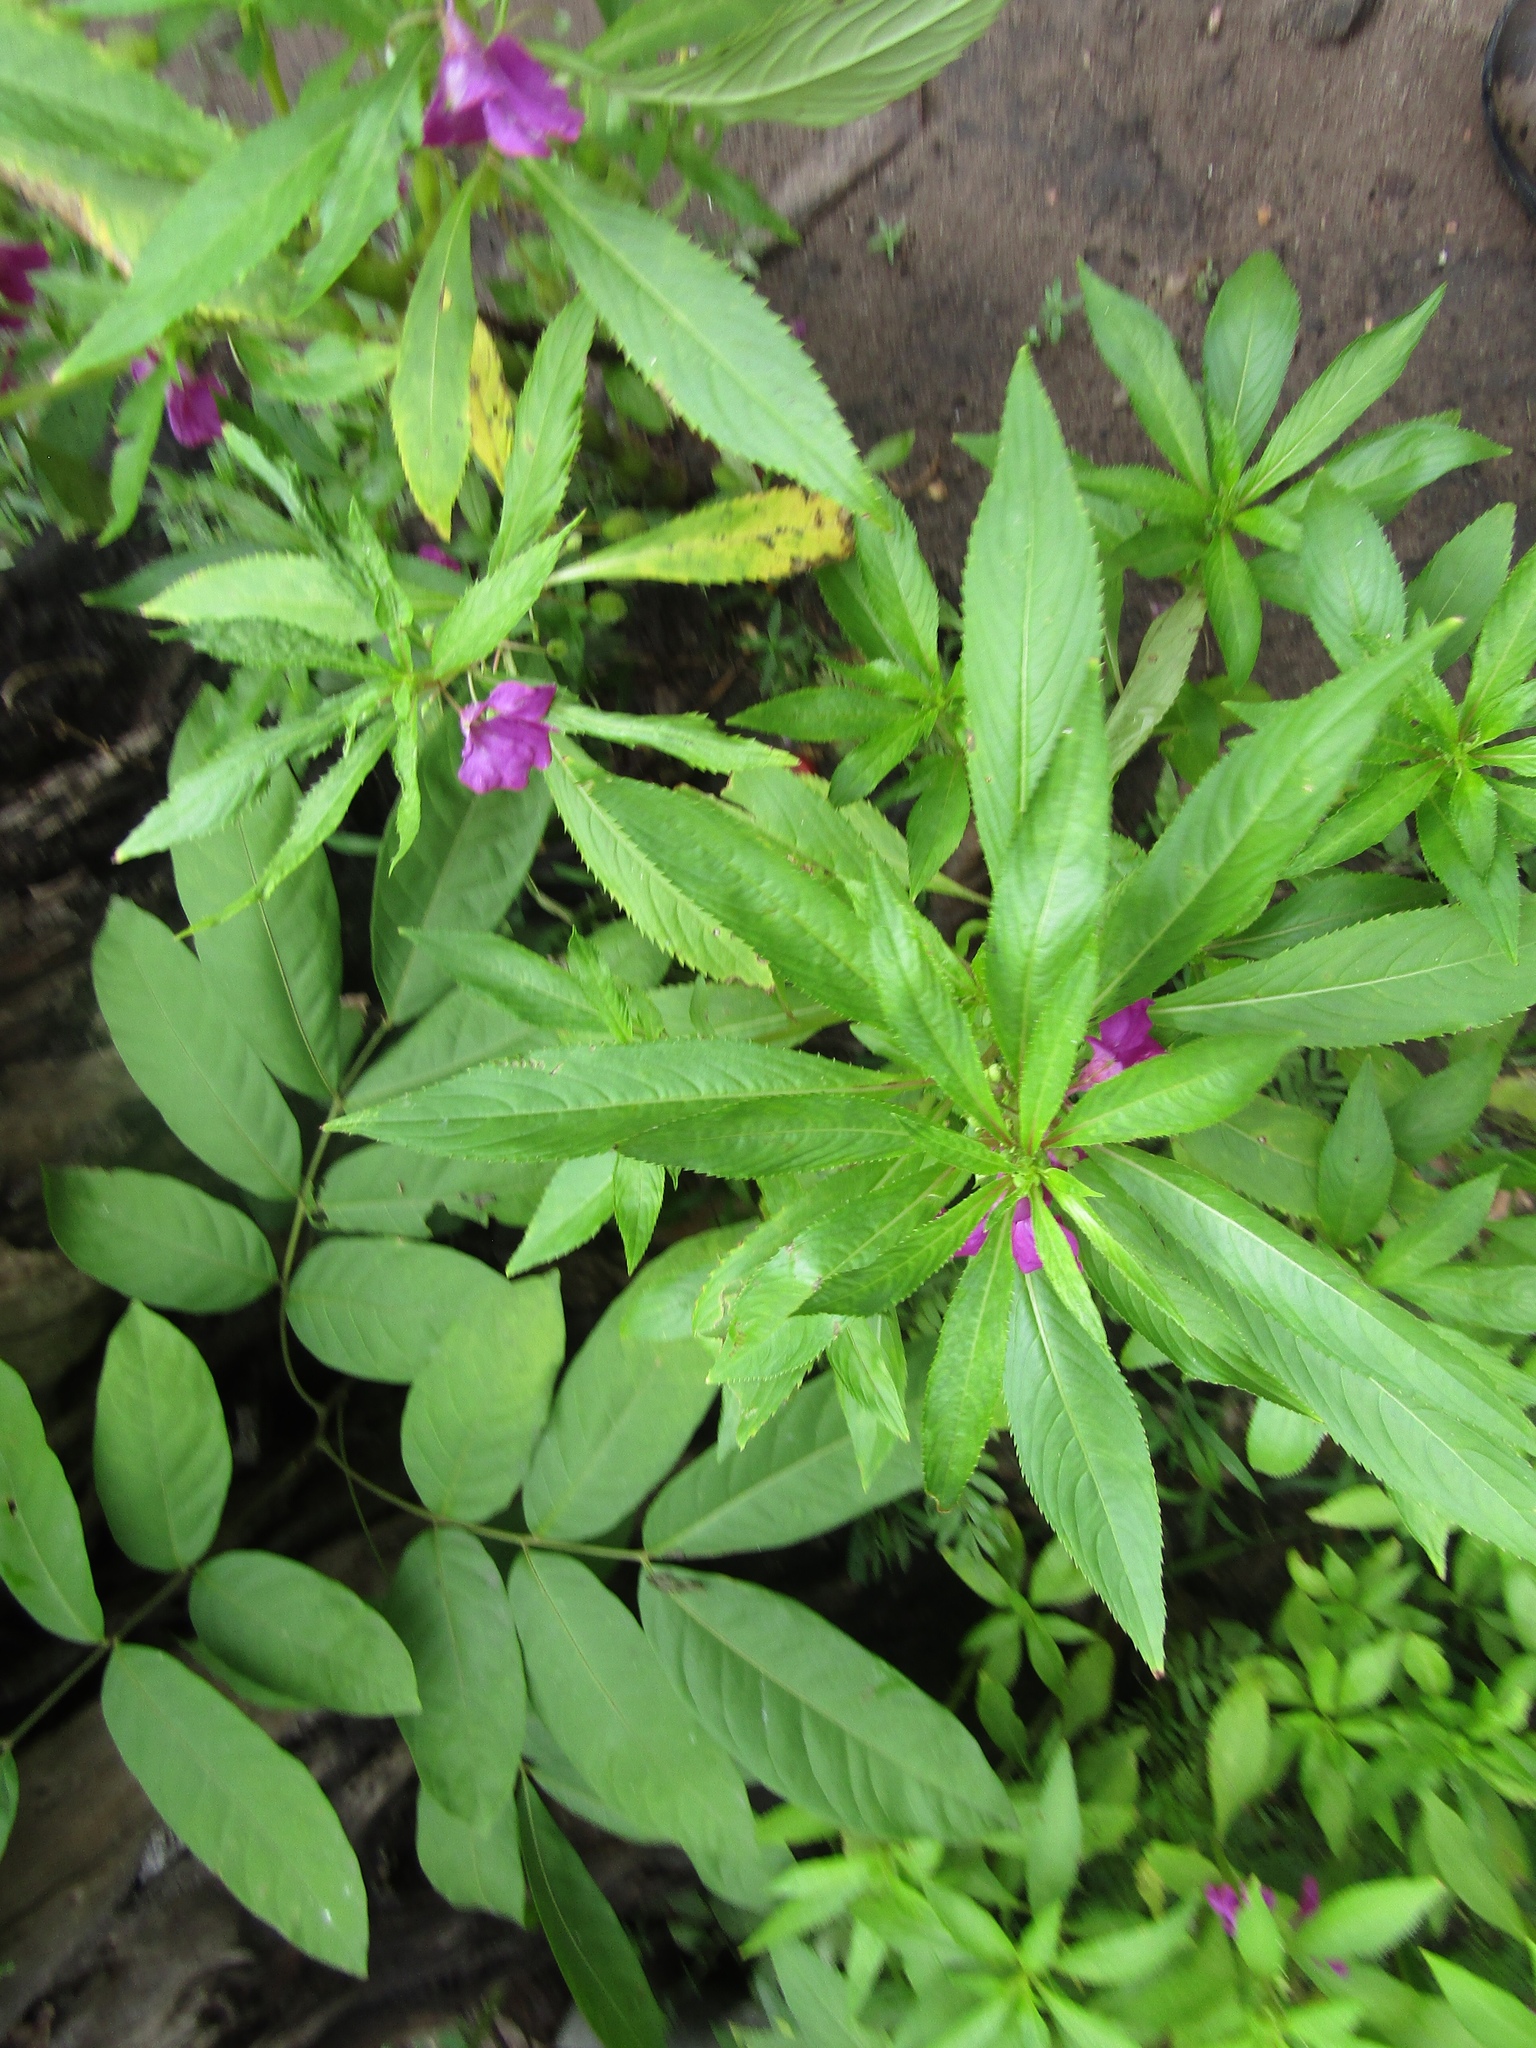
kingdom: Plantae
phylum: Tracheophyta
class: Magnoliopsida
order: Ericales
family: Balsaminaceae
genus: Impatiens
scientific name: Impatiens balsamina
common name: Balsam
